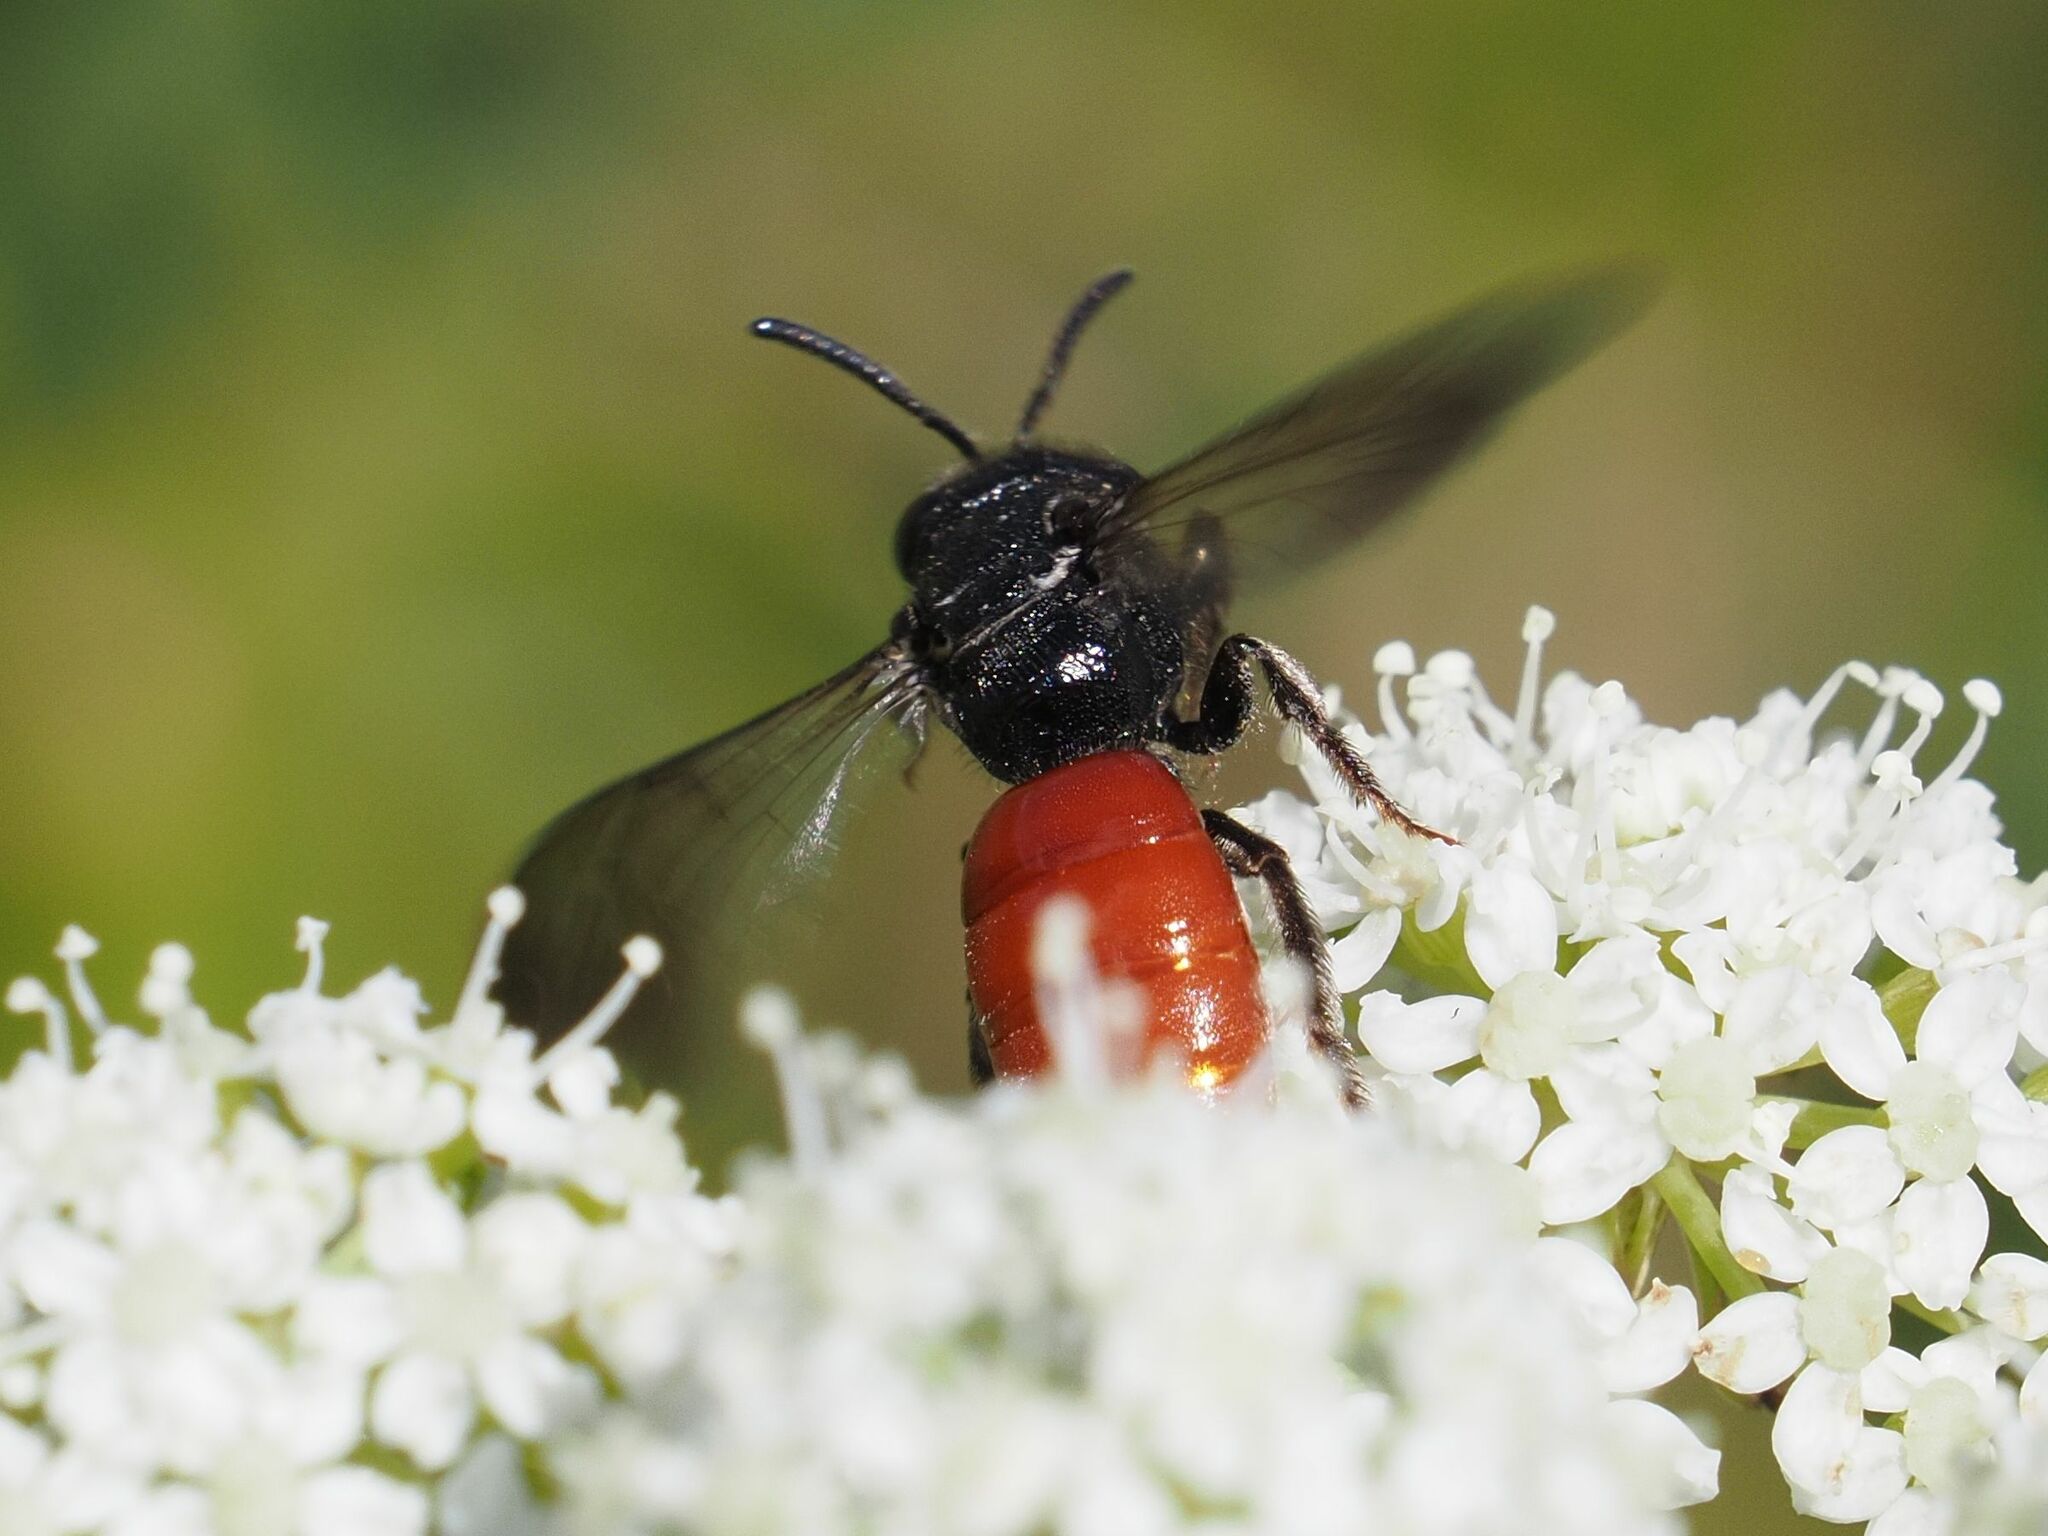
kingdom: Animalia
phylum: Arthropoda
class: Insecta
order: Hymenoptera
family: Halictidae
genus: Sphecodes
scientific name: Sphecodes albilabris
